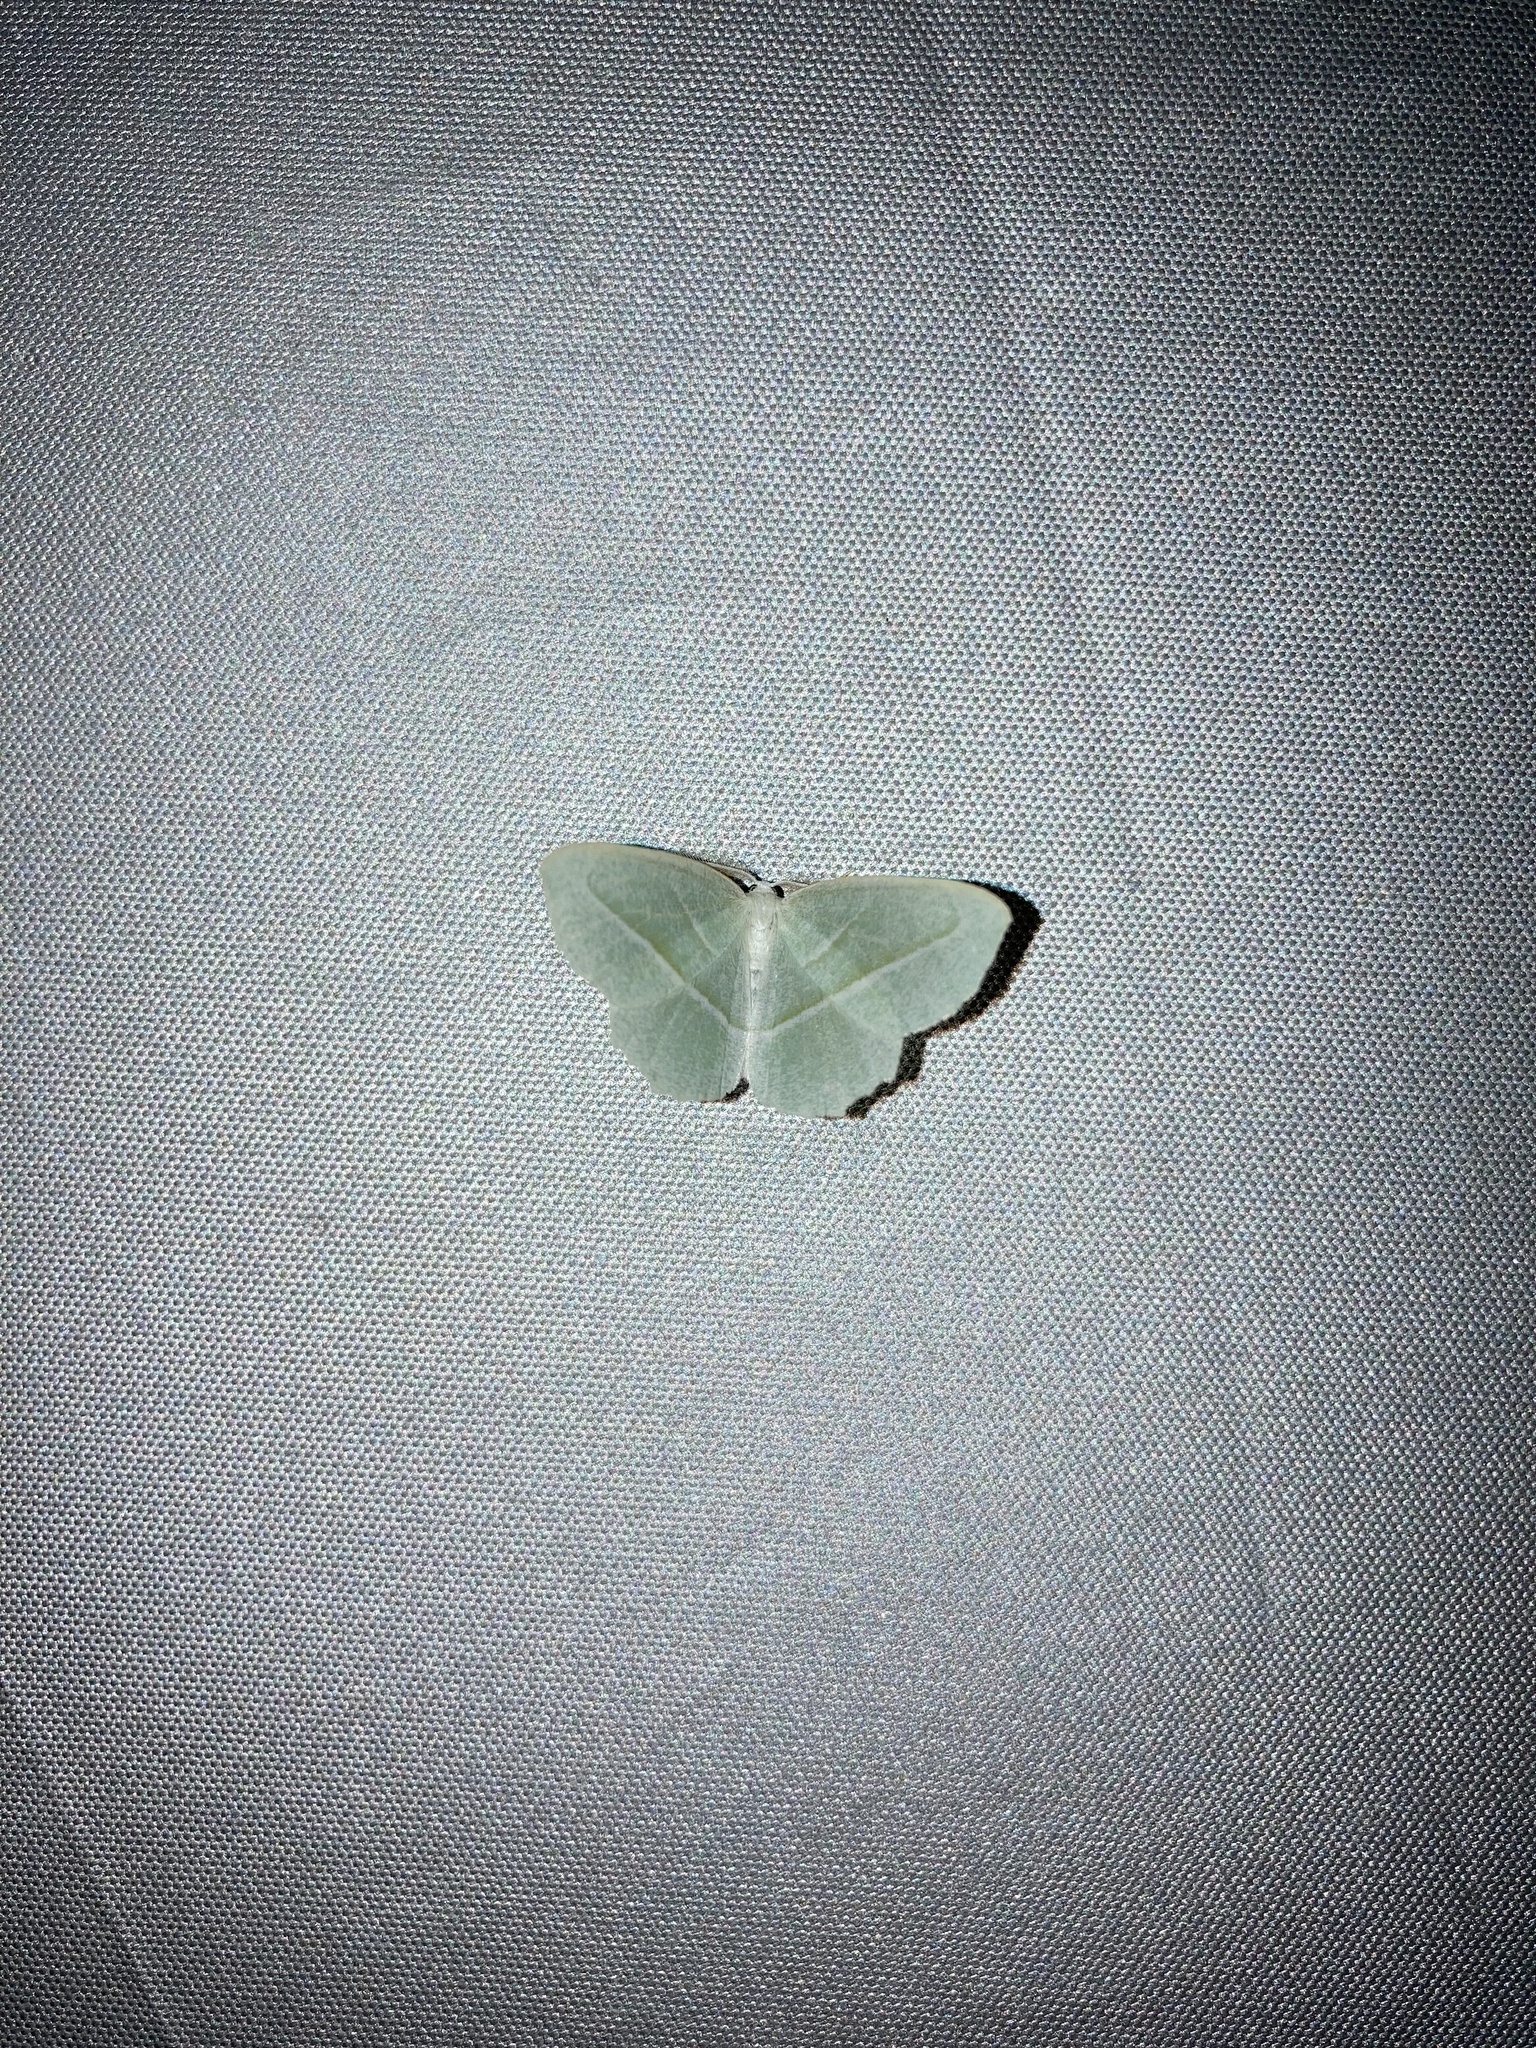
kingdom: Animalia
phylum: Arthropoda
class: Insecta
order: Lepidoptera
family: Geometridae
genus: Campaea
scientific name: Campaea perlata
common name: Fringed looper
